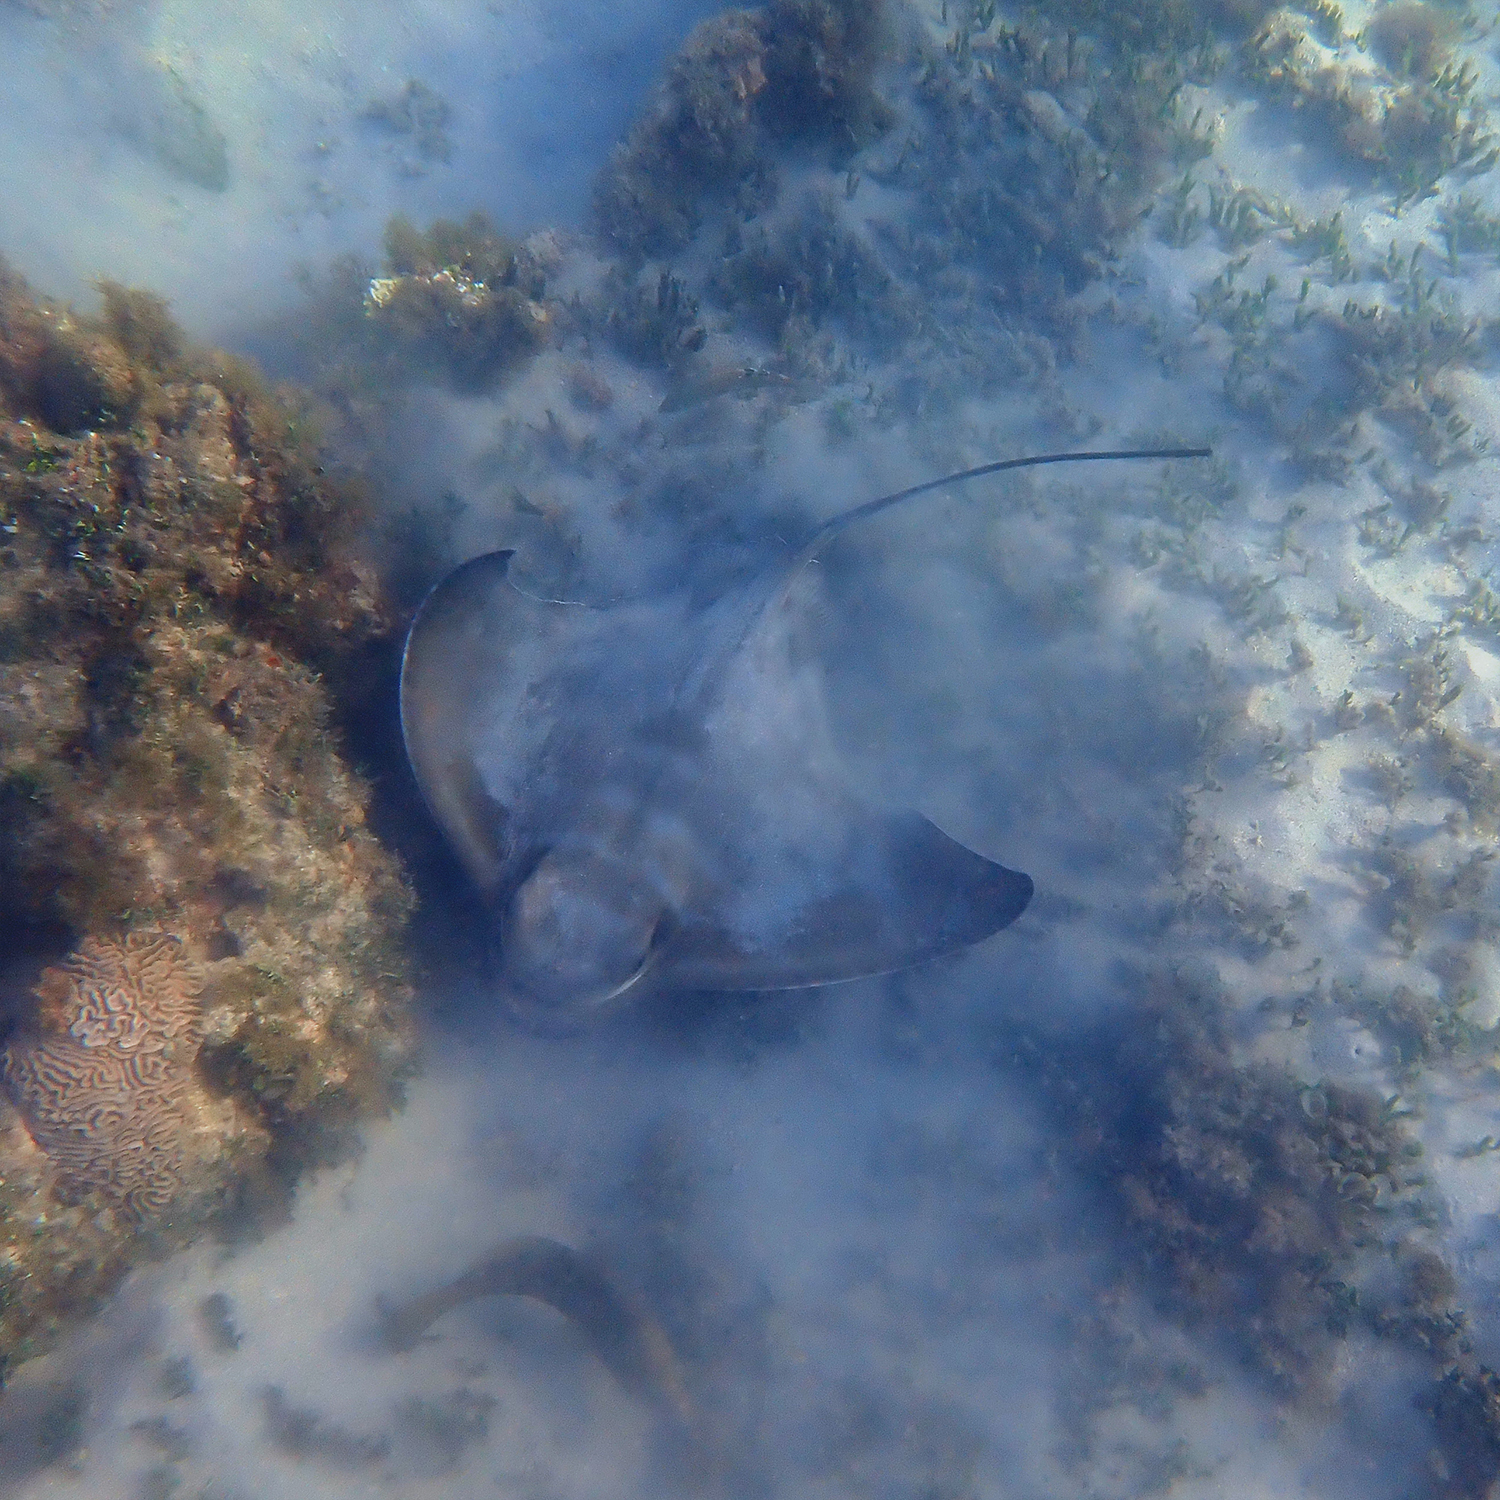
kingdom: Animalia
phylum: Chordata
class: Elasmobranchii
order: Myliobatiformes
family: Myliobatidae
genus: Myliobatis
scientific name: Myliobatis tenuicaudatus
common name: Eagle ray
